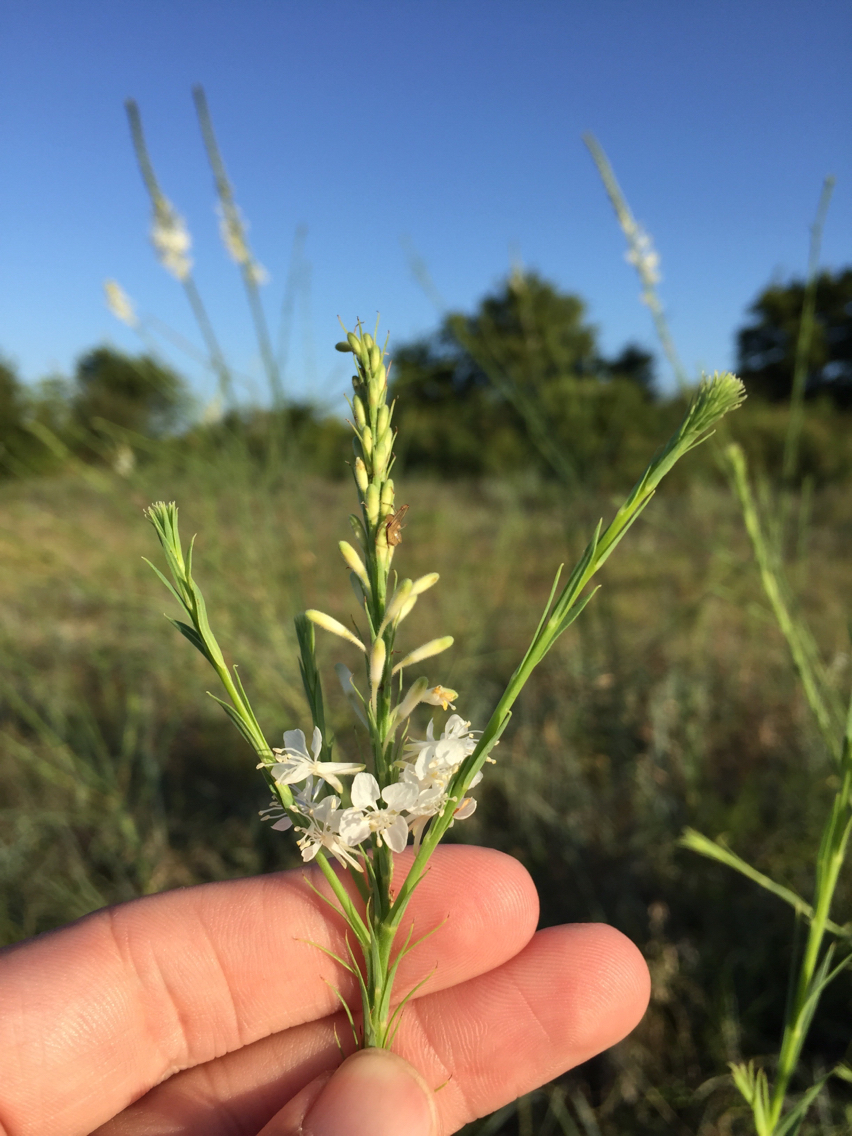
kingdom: Plantae
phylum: Tracheophyta
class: Magnoliopsida
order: Myrtales
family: Onagraceae
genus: Oenothera
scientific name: Oenothera glaucifolia
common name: False gaura
